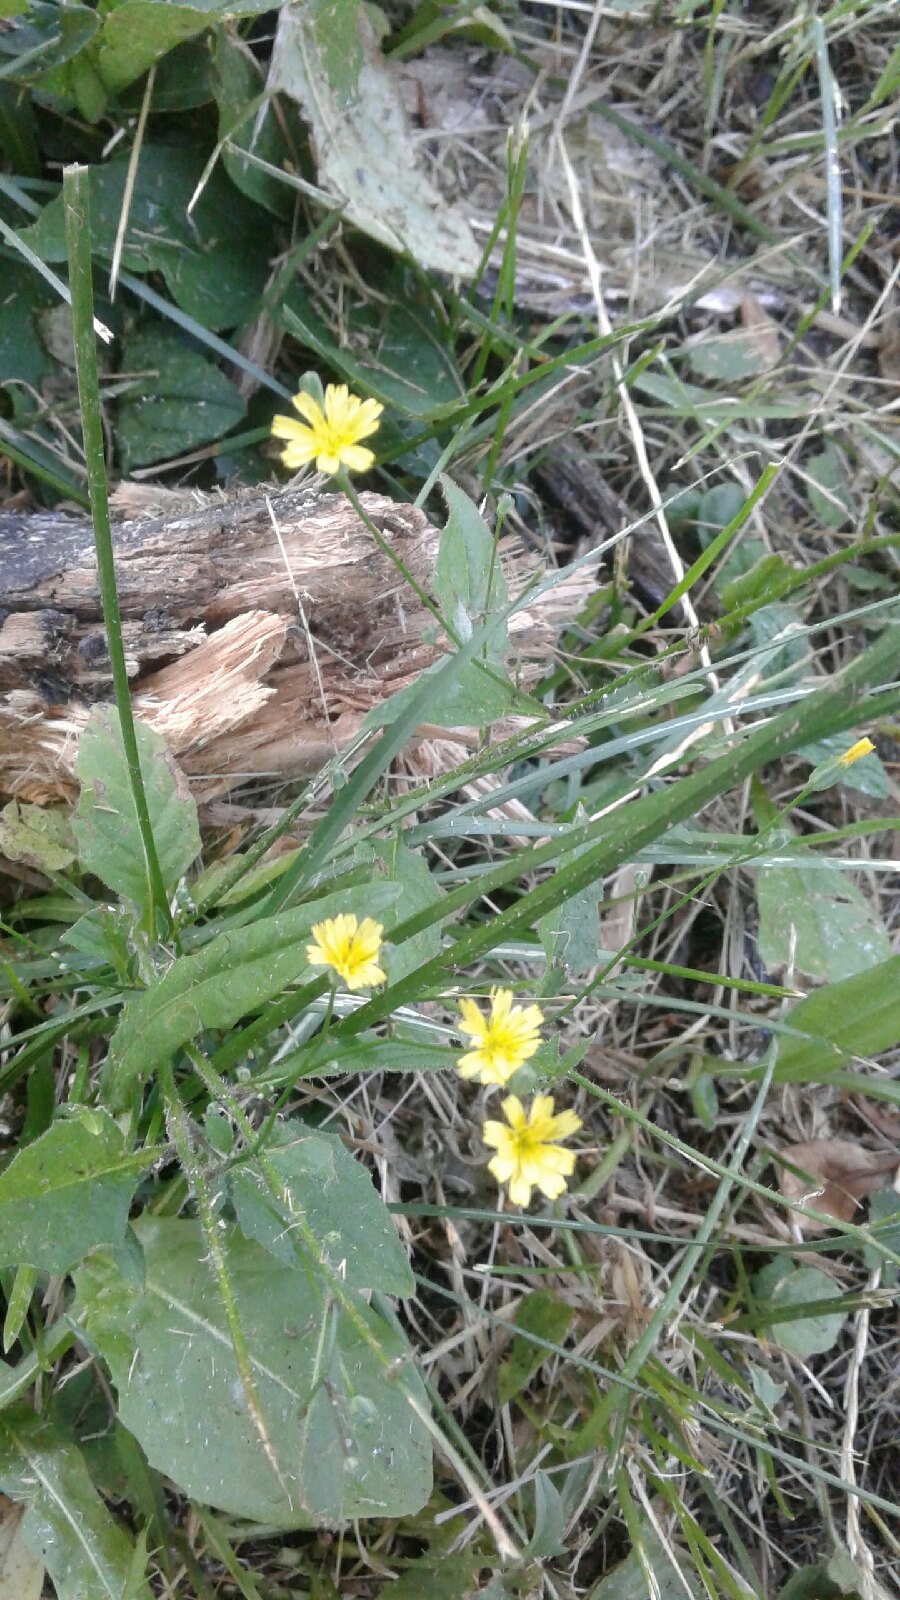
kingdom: Plantae
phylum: Tracheophyta
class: Magnoliopsida
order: Asterales
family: Asteraceae
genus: Lapsana
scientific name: Lapsana communis
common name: Nipplewort
